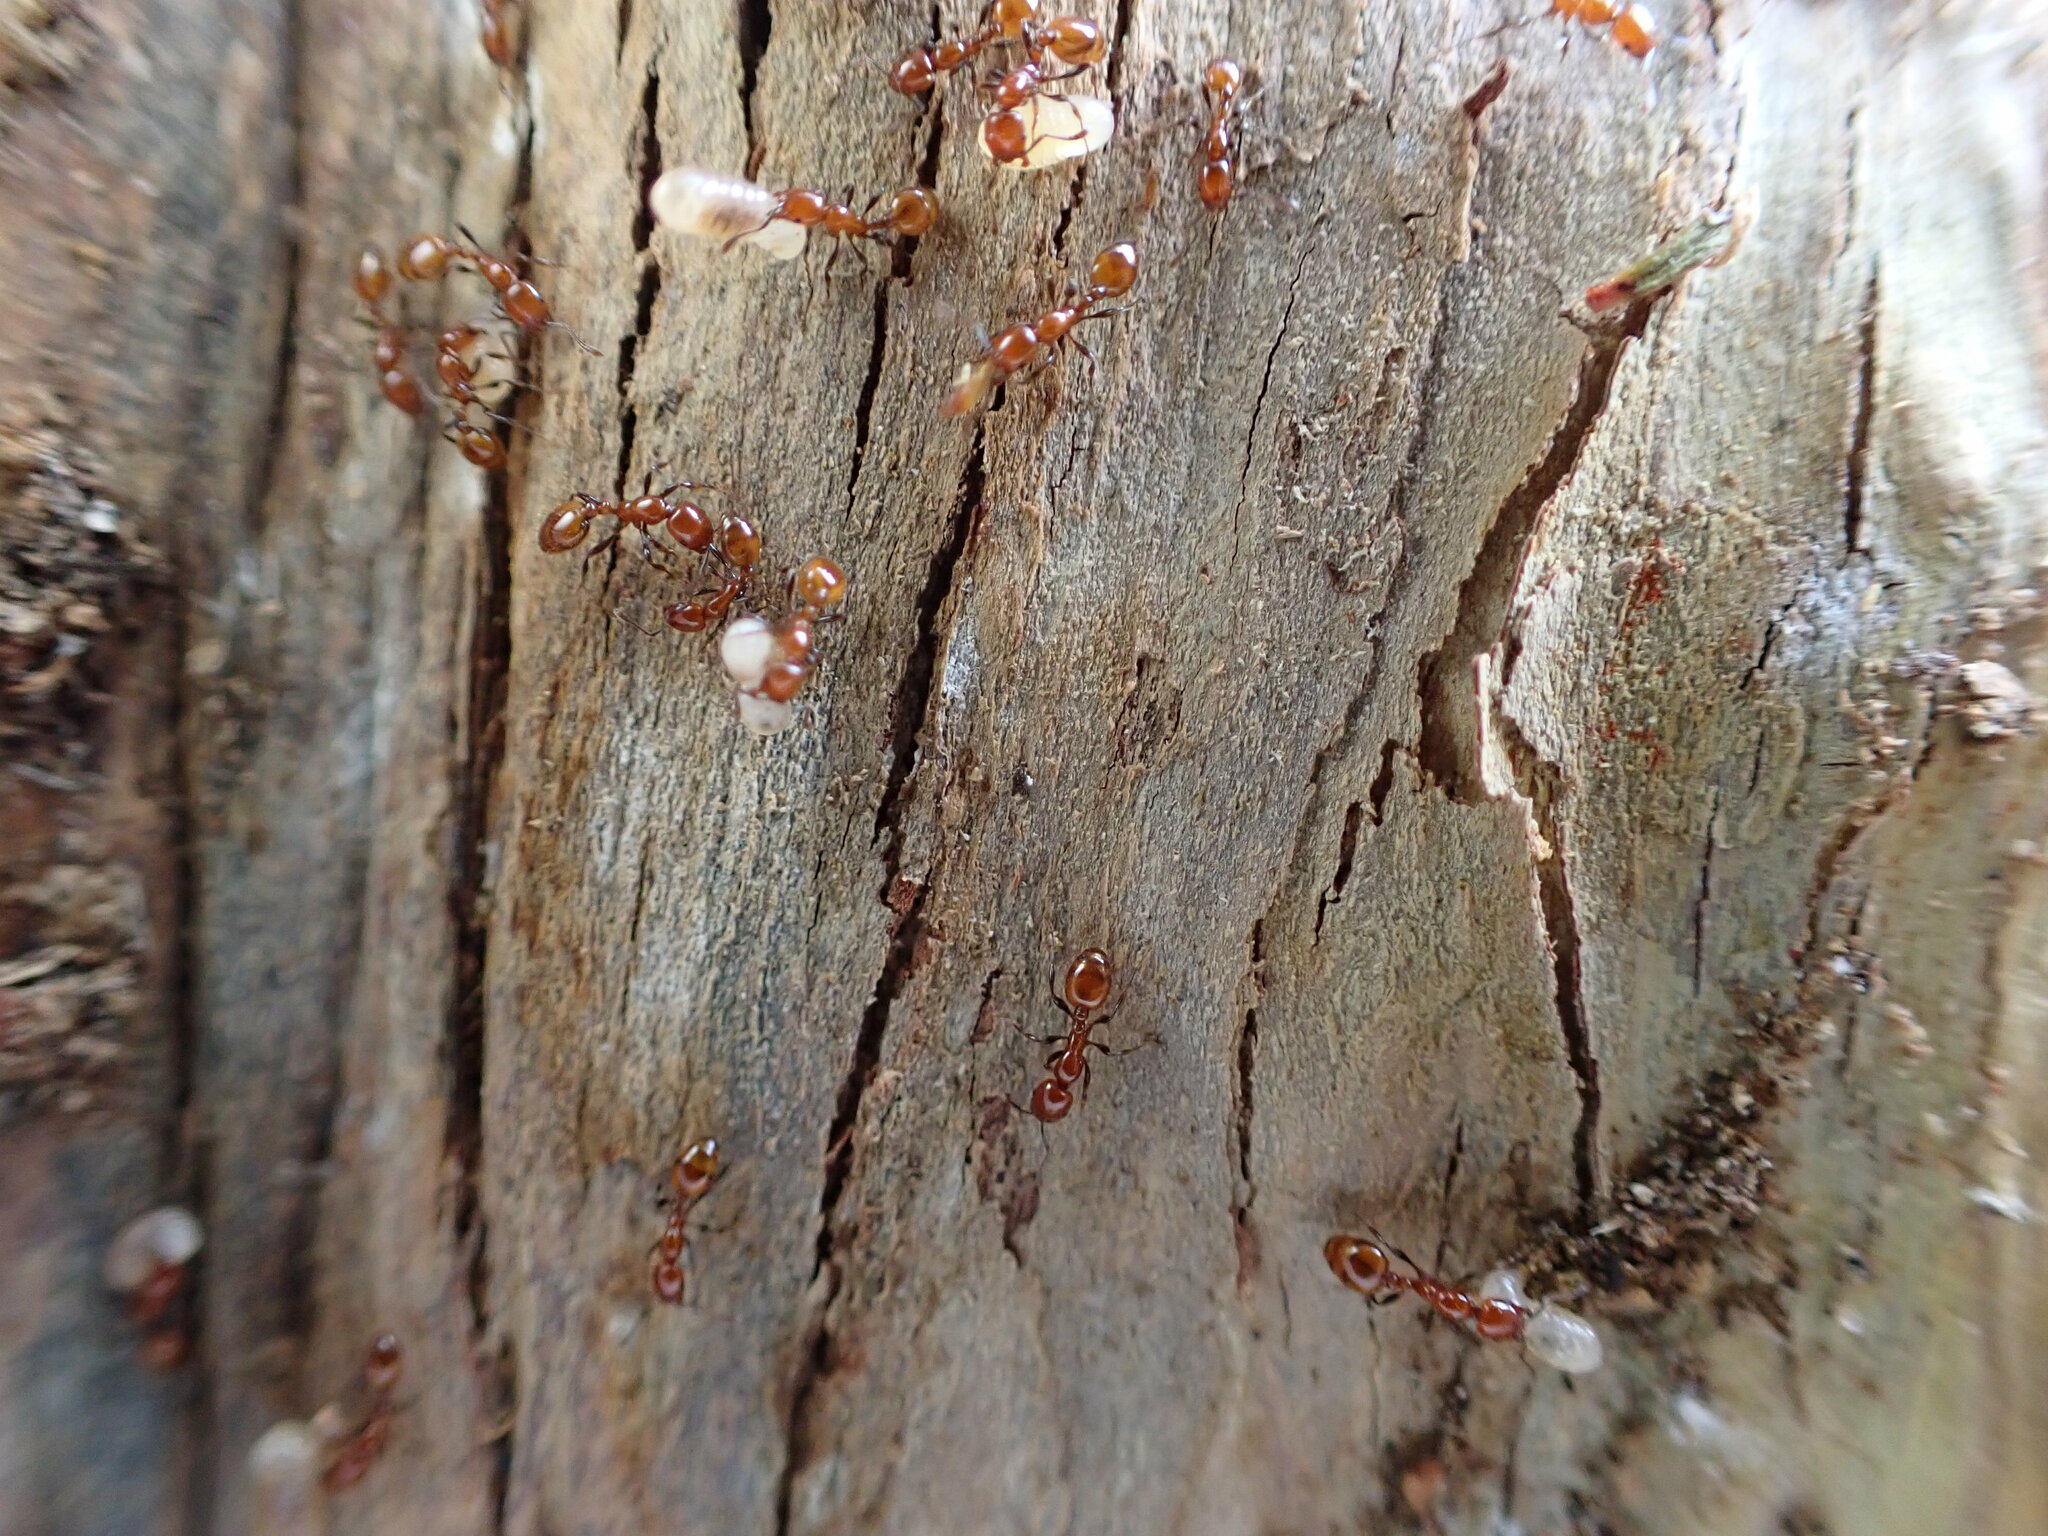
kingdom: Animalia
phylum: Arthropoda
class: Insecta
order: Hymenoptera
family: Formicidae
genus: Monomorium
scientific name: Monomorium antarcticum
